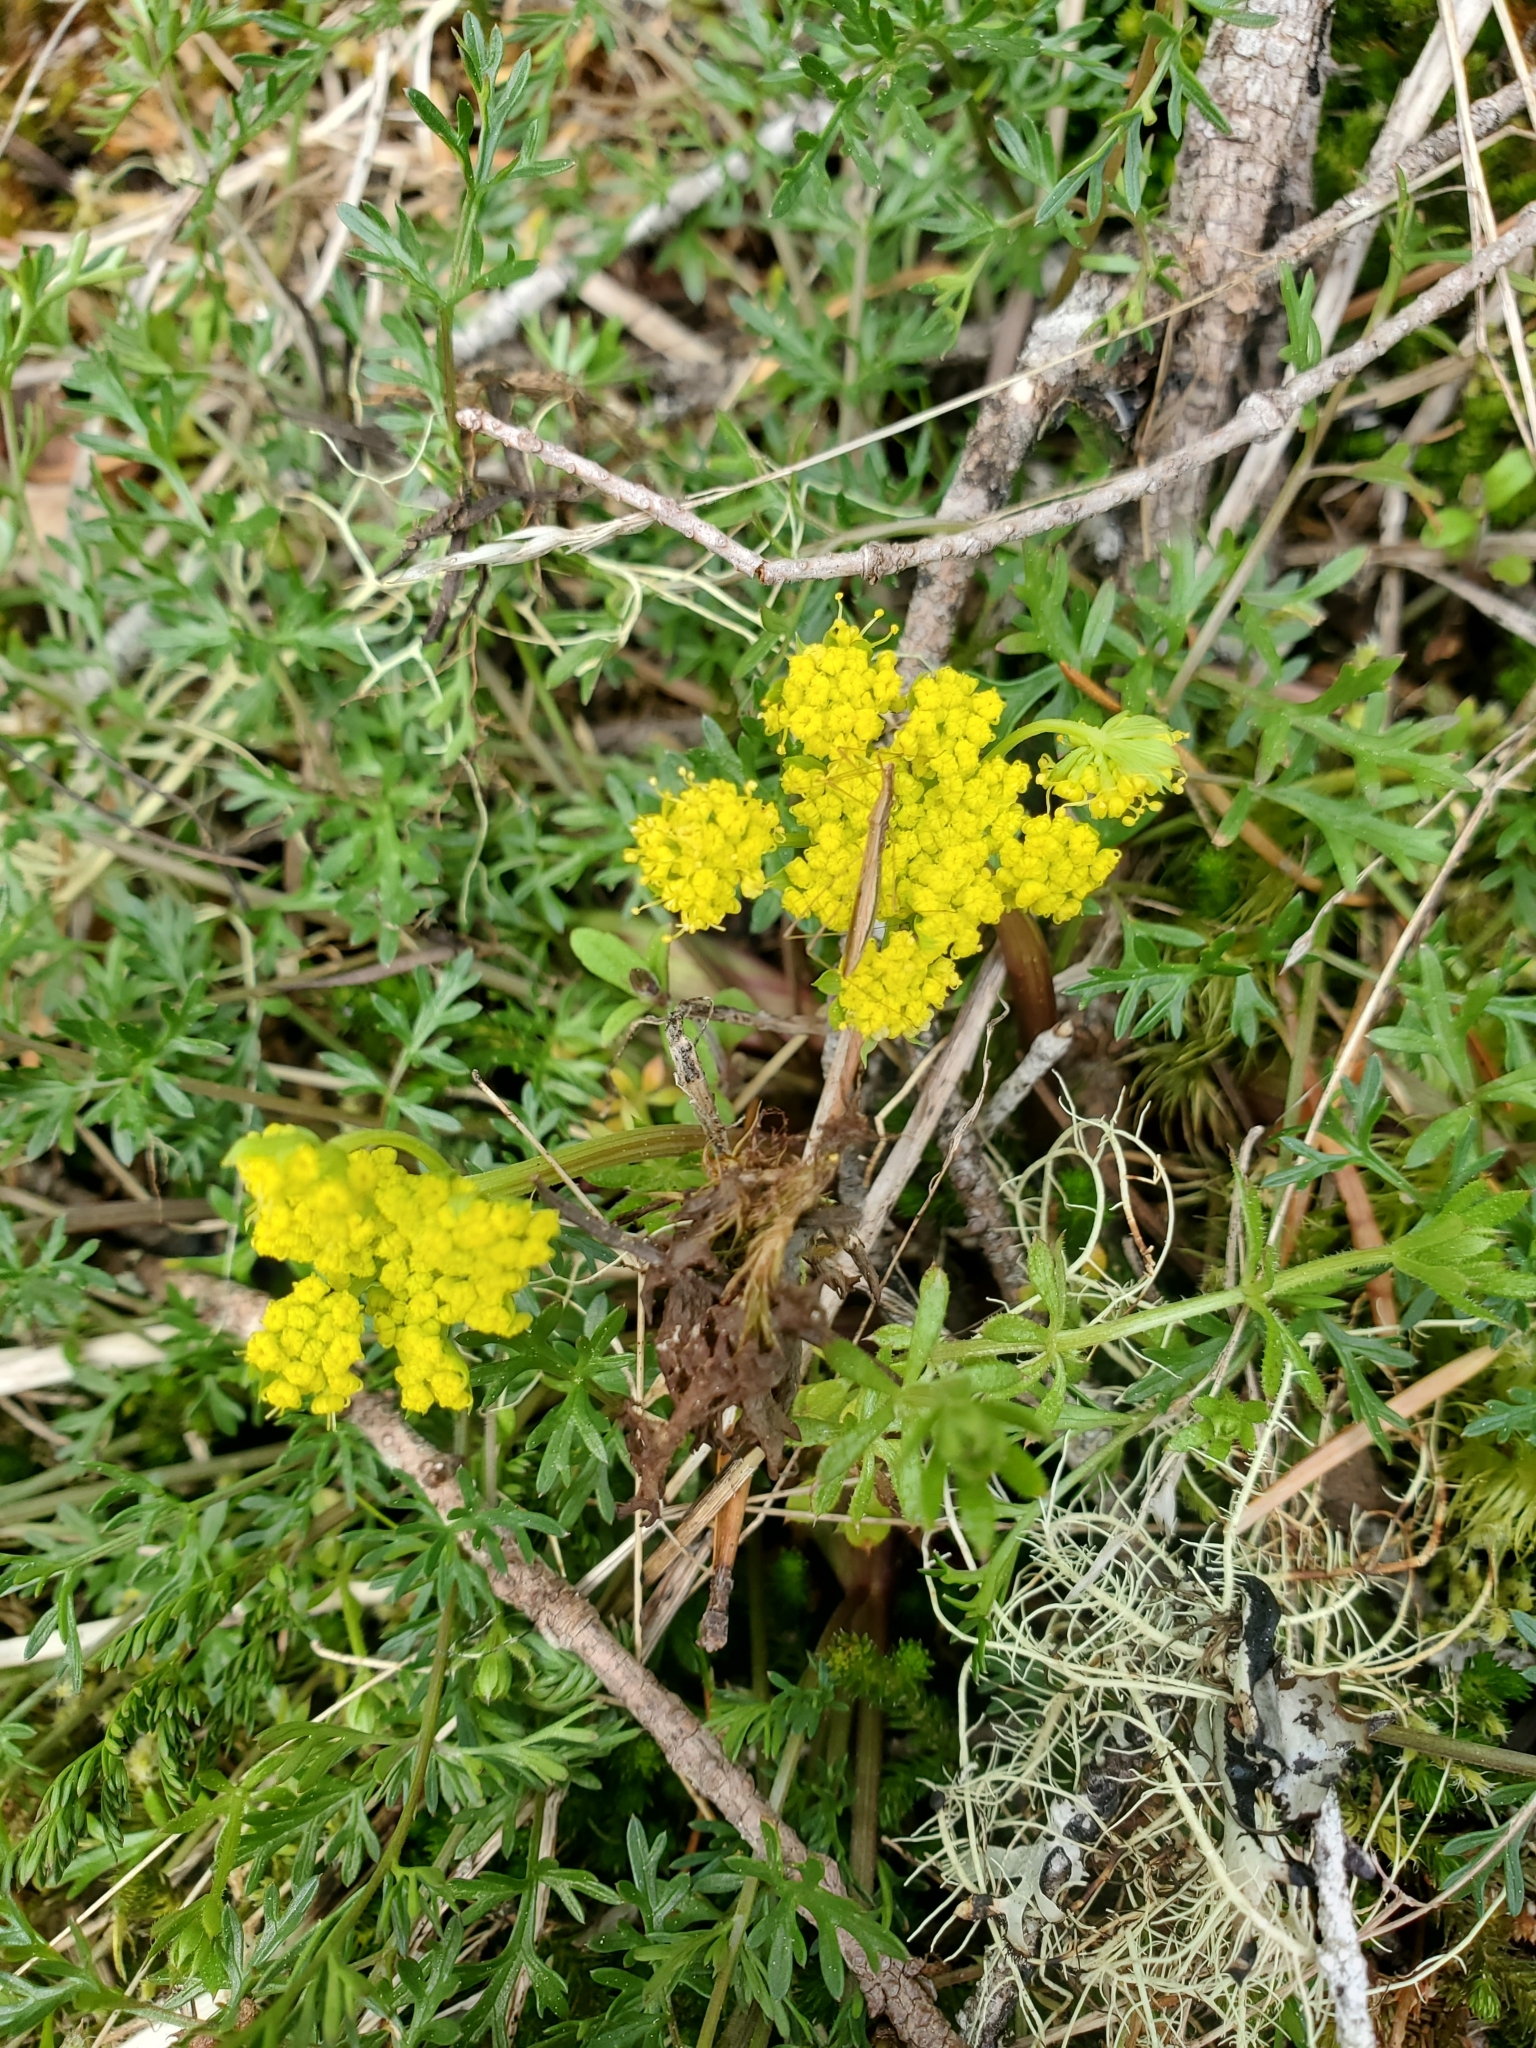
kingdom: Plantae
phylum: Tracheophyta
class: Magnoliopsida
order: Apiales
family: Apiaceae
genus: Lomatium
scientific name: Lomatium utriculatum
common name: Fine-leaf desert-parsley
